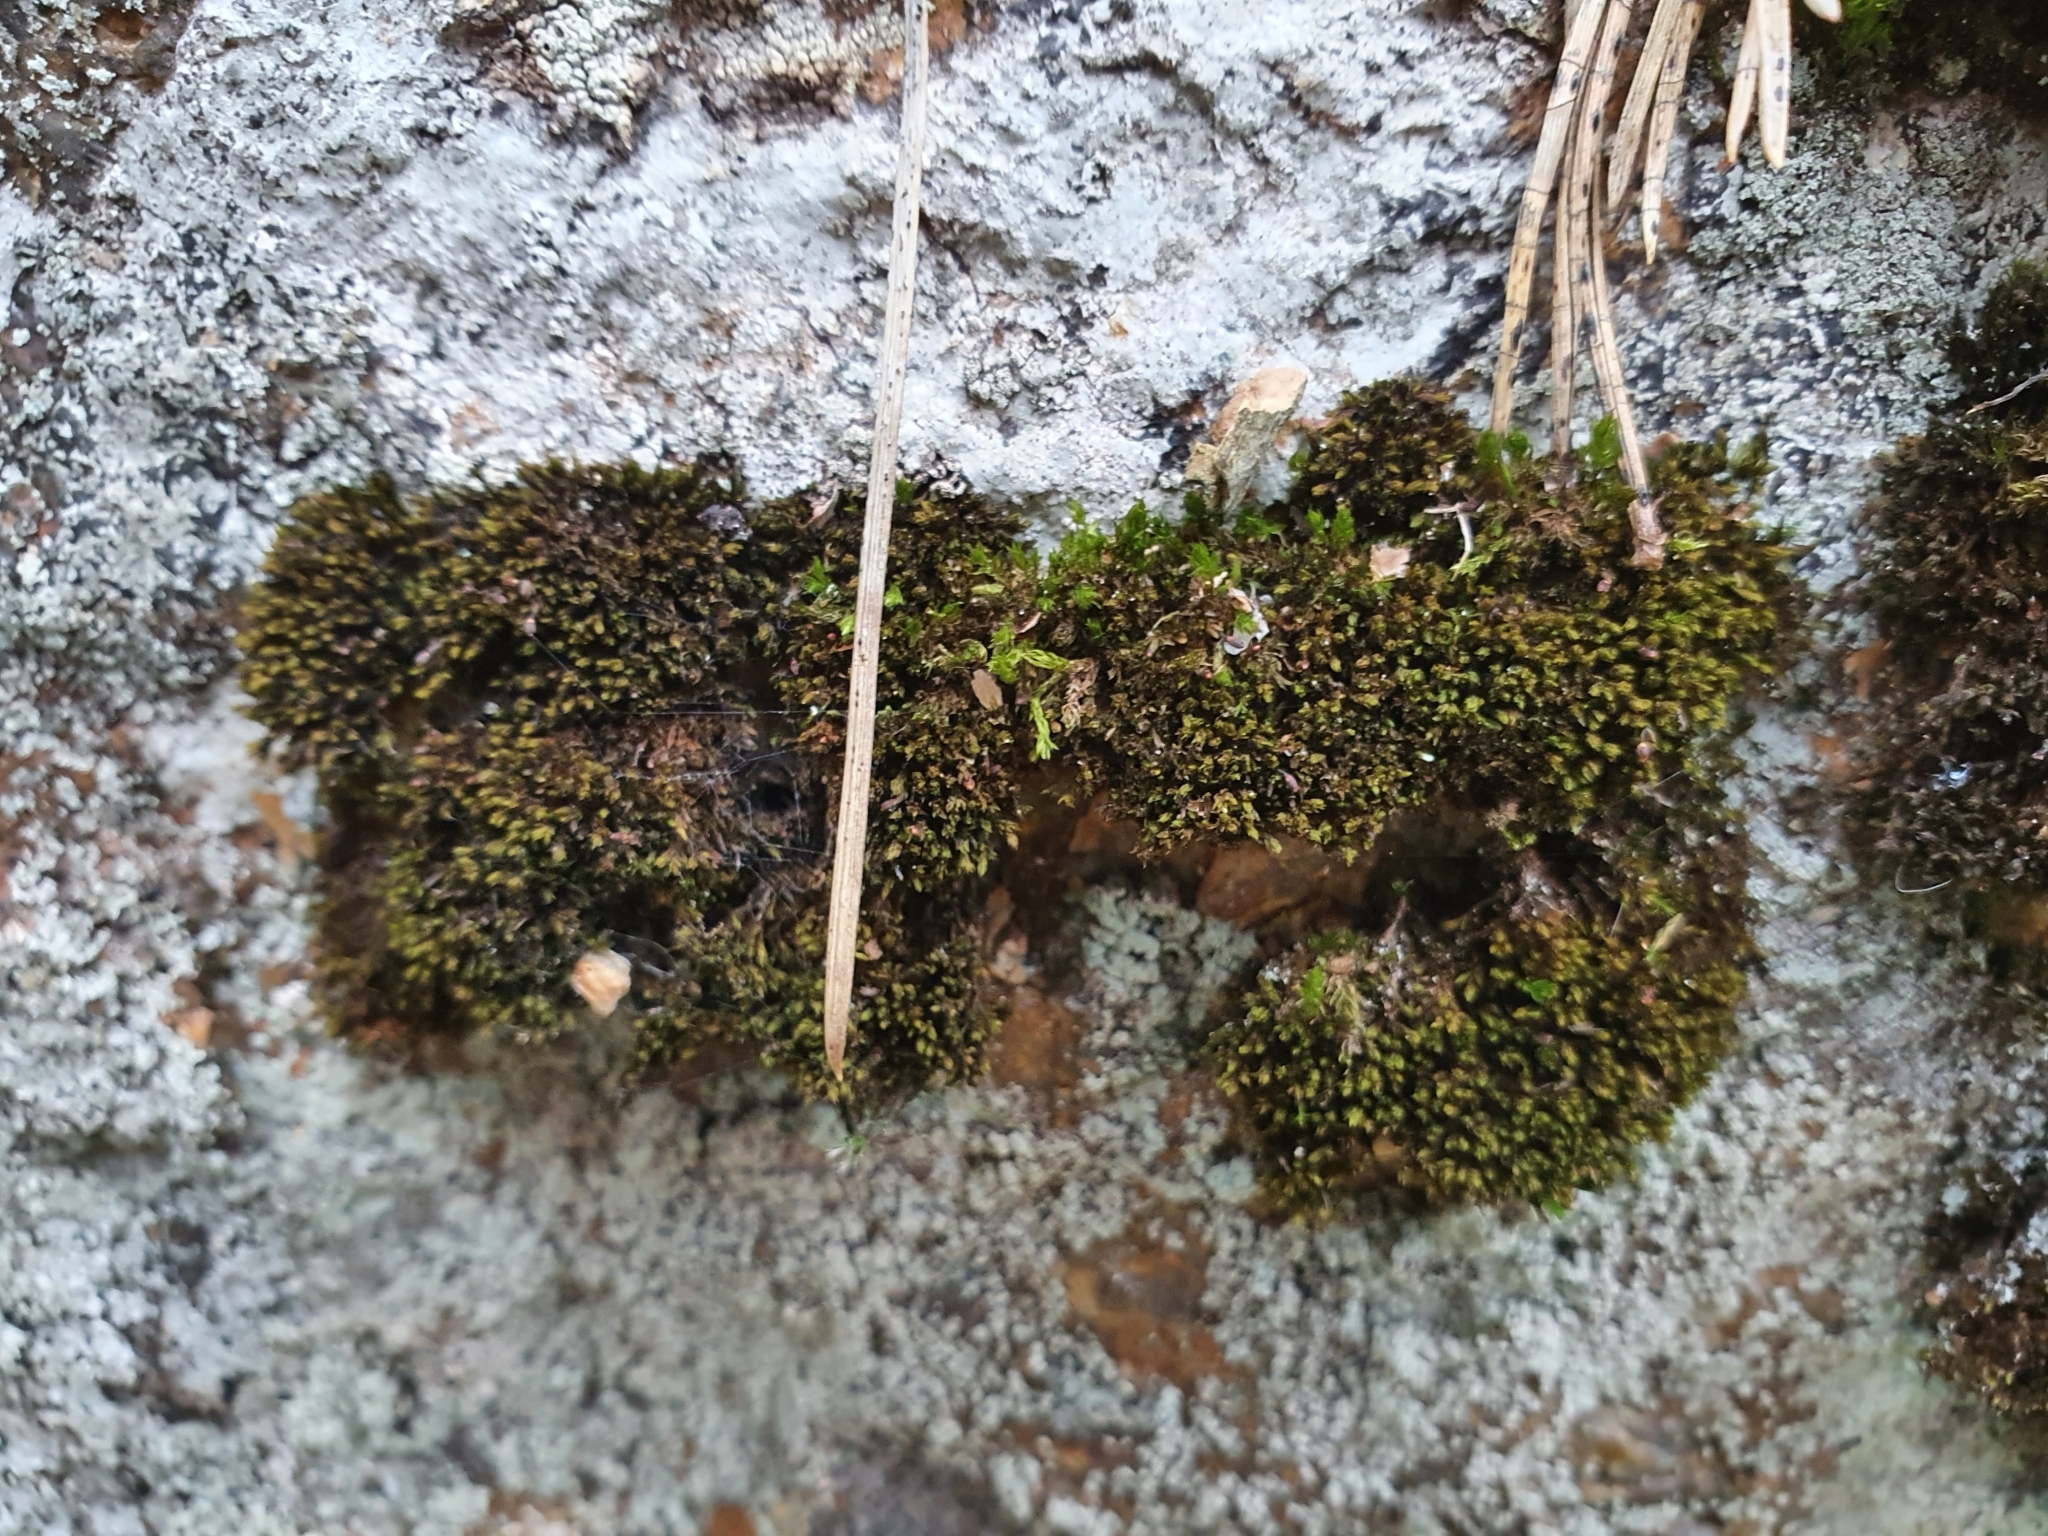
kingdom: Plantae
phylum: Bryophyta
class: Andreaeopsida
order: Andreaeales
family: Andreaeaceae
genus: Andreaea
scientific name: Andreaea rupestris
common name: Black rock moss
